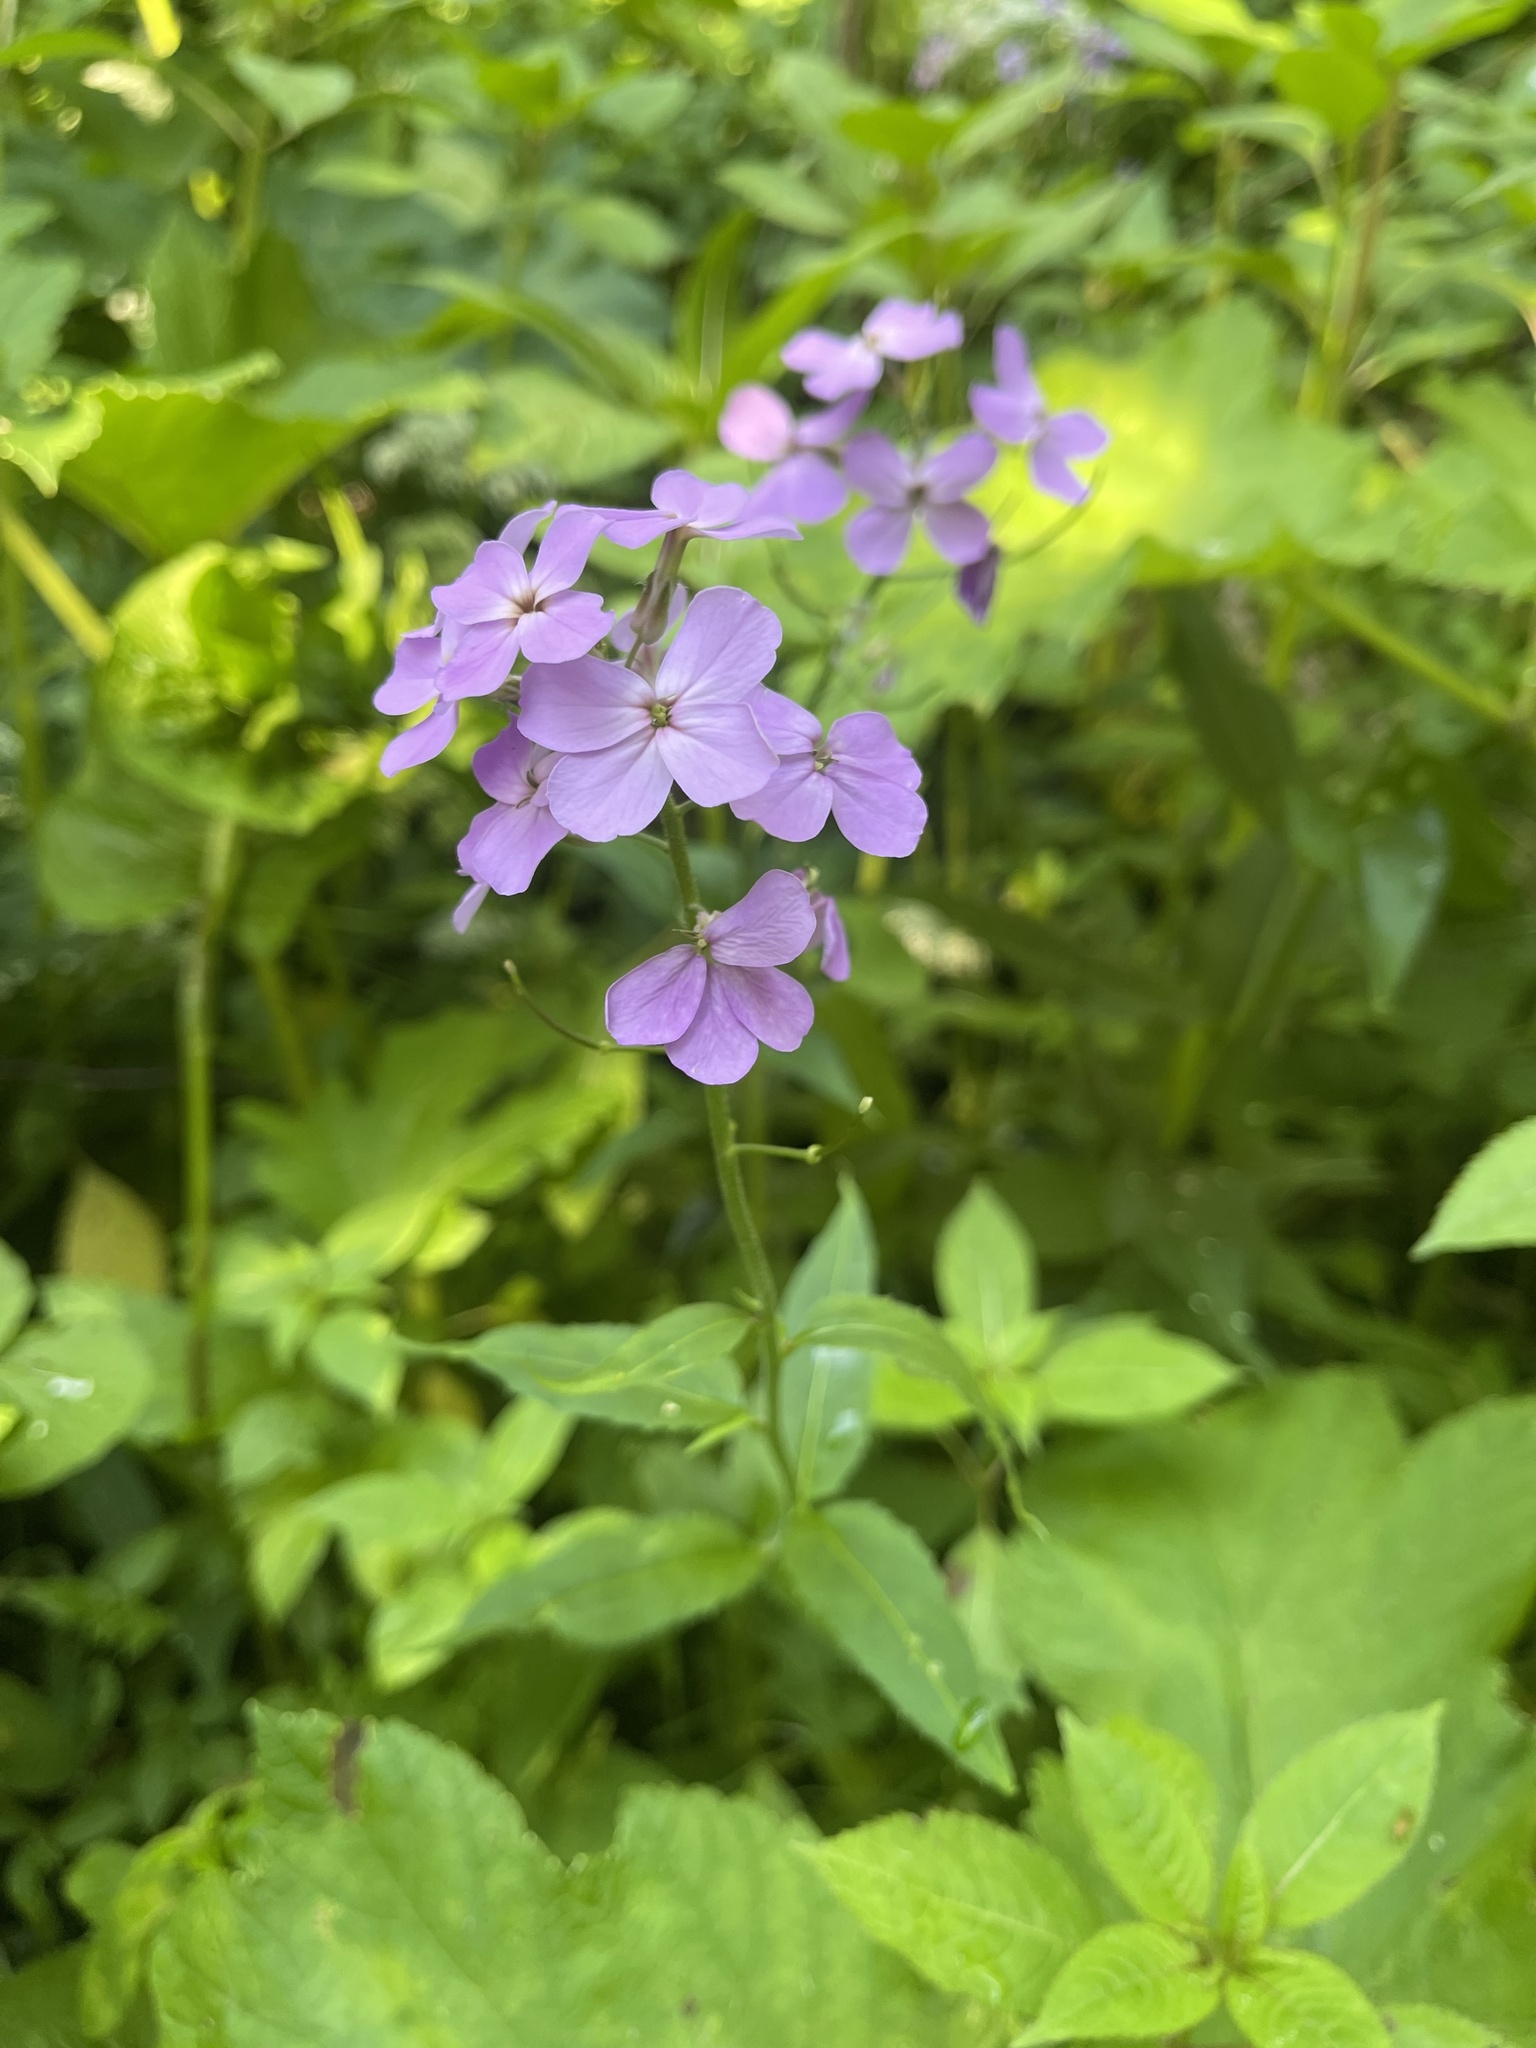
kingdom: Plantae
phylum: Tracheophyta
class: Magnoliopsida
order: Brassicales
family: Brassicaceae
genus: Hesperis
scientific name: Hesperis matronalis
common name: Dame's-violet
